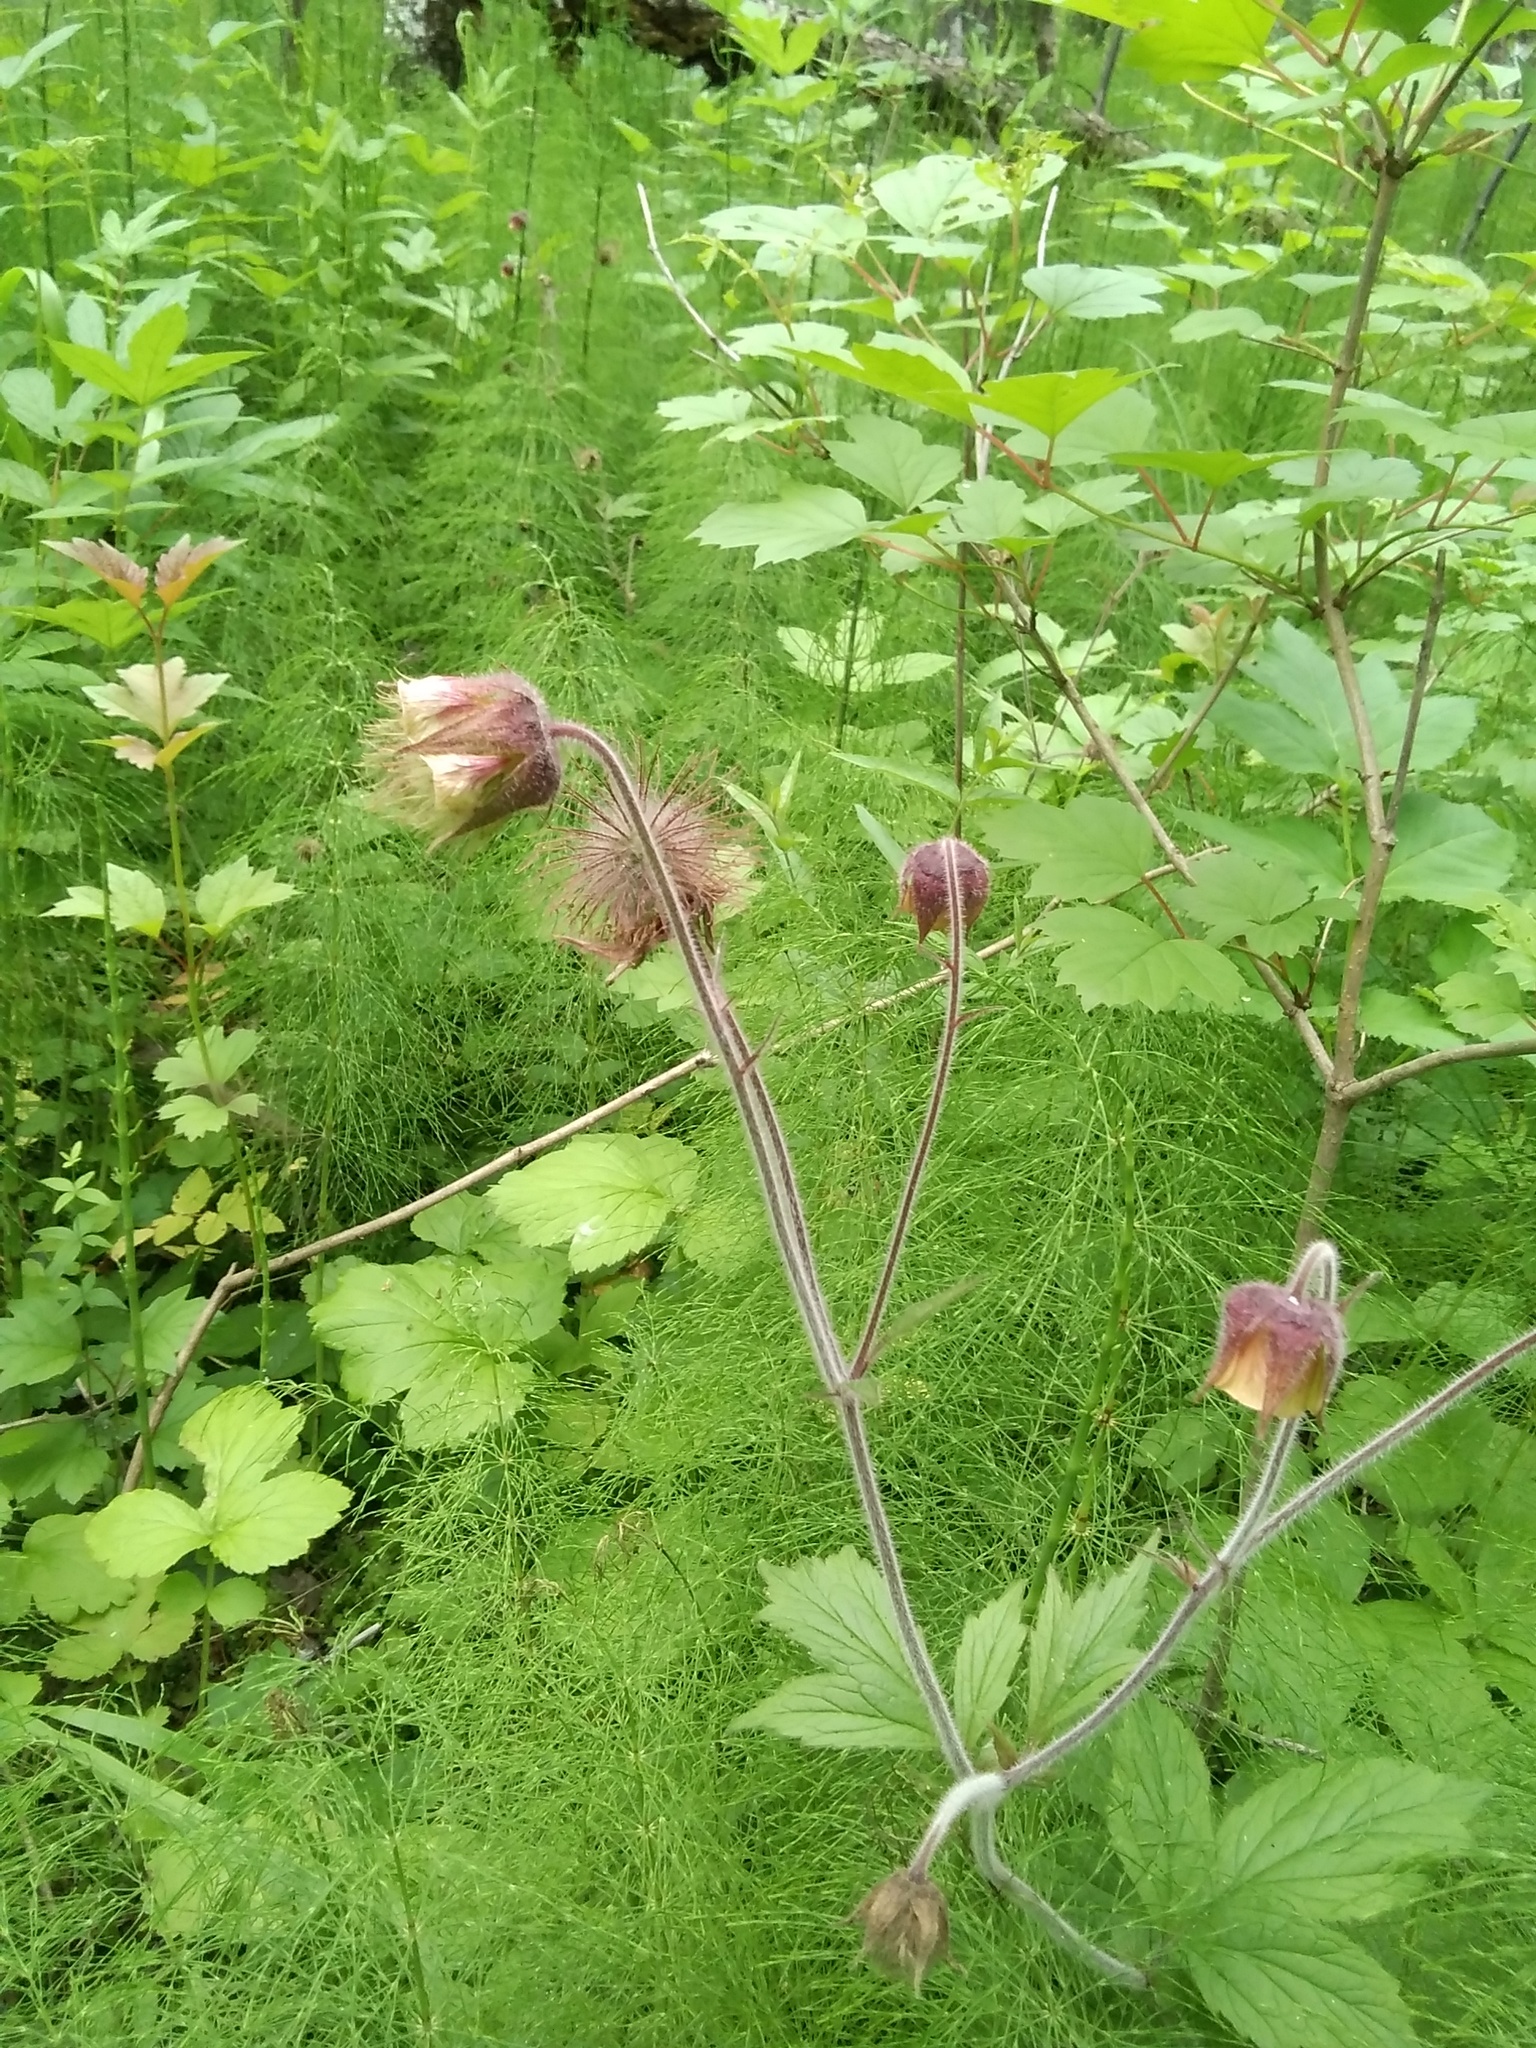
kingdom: Plantae
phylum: Tracheophyta
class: Magnoliopsida
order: Rosales
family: Rosaceae
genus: Geum
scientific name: Geum rivale
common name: Water avens
